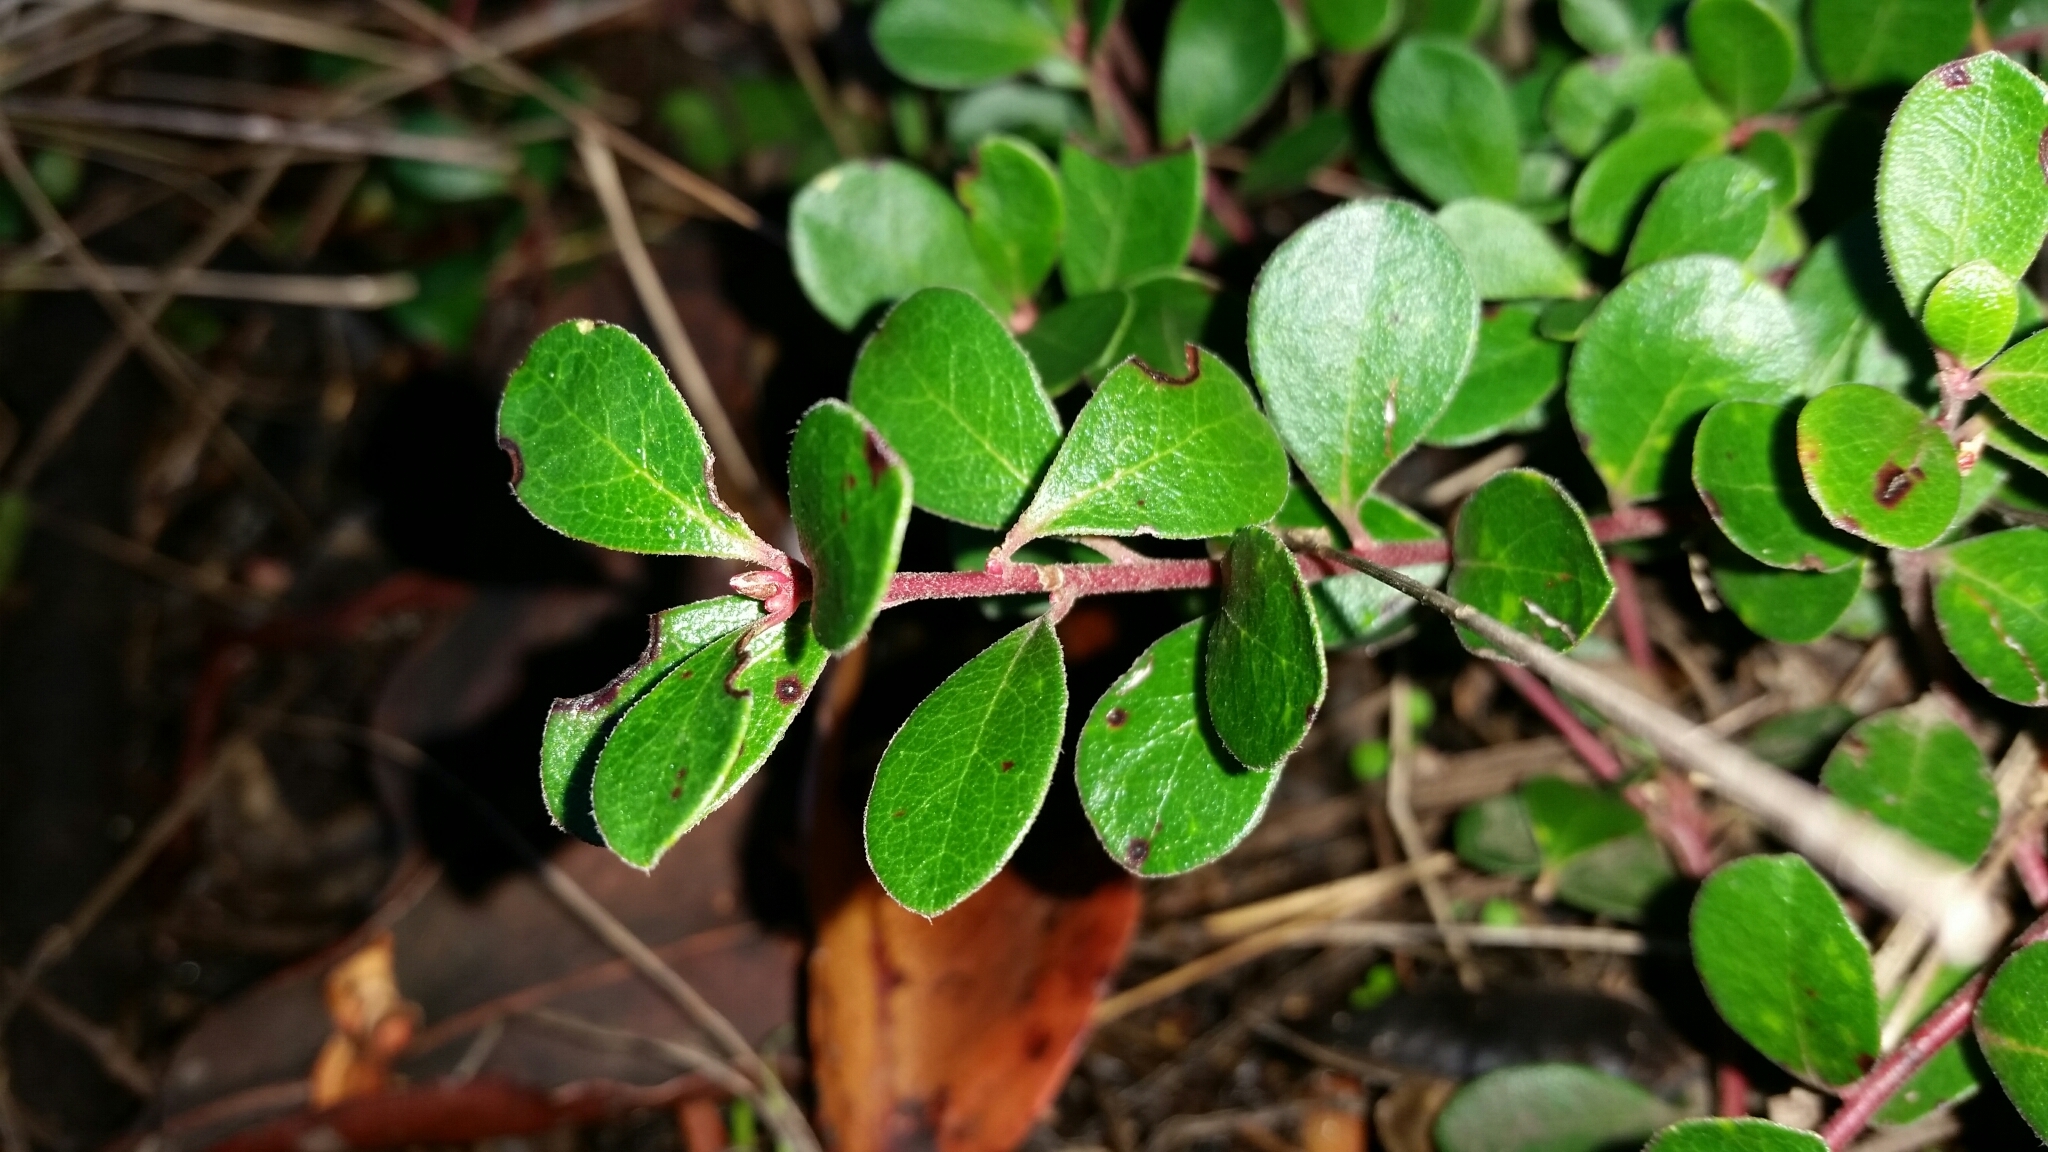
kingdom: Plantae
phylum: Tracheophyta
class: Magnoliopsida
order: Ericales
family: Ericaceae
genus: Arctostaphylos
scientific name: Arctostaphylos uva-ursi
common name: Bearberry
